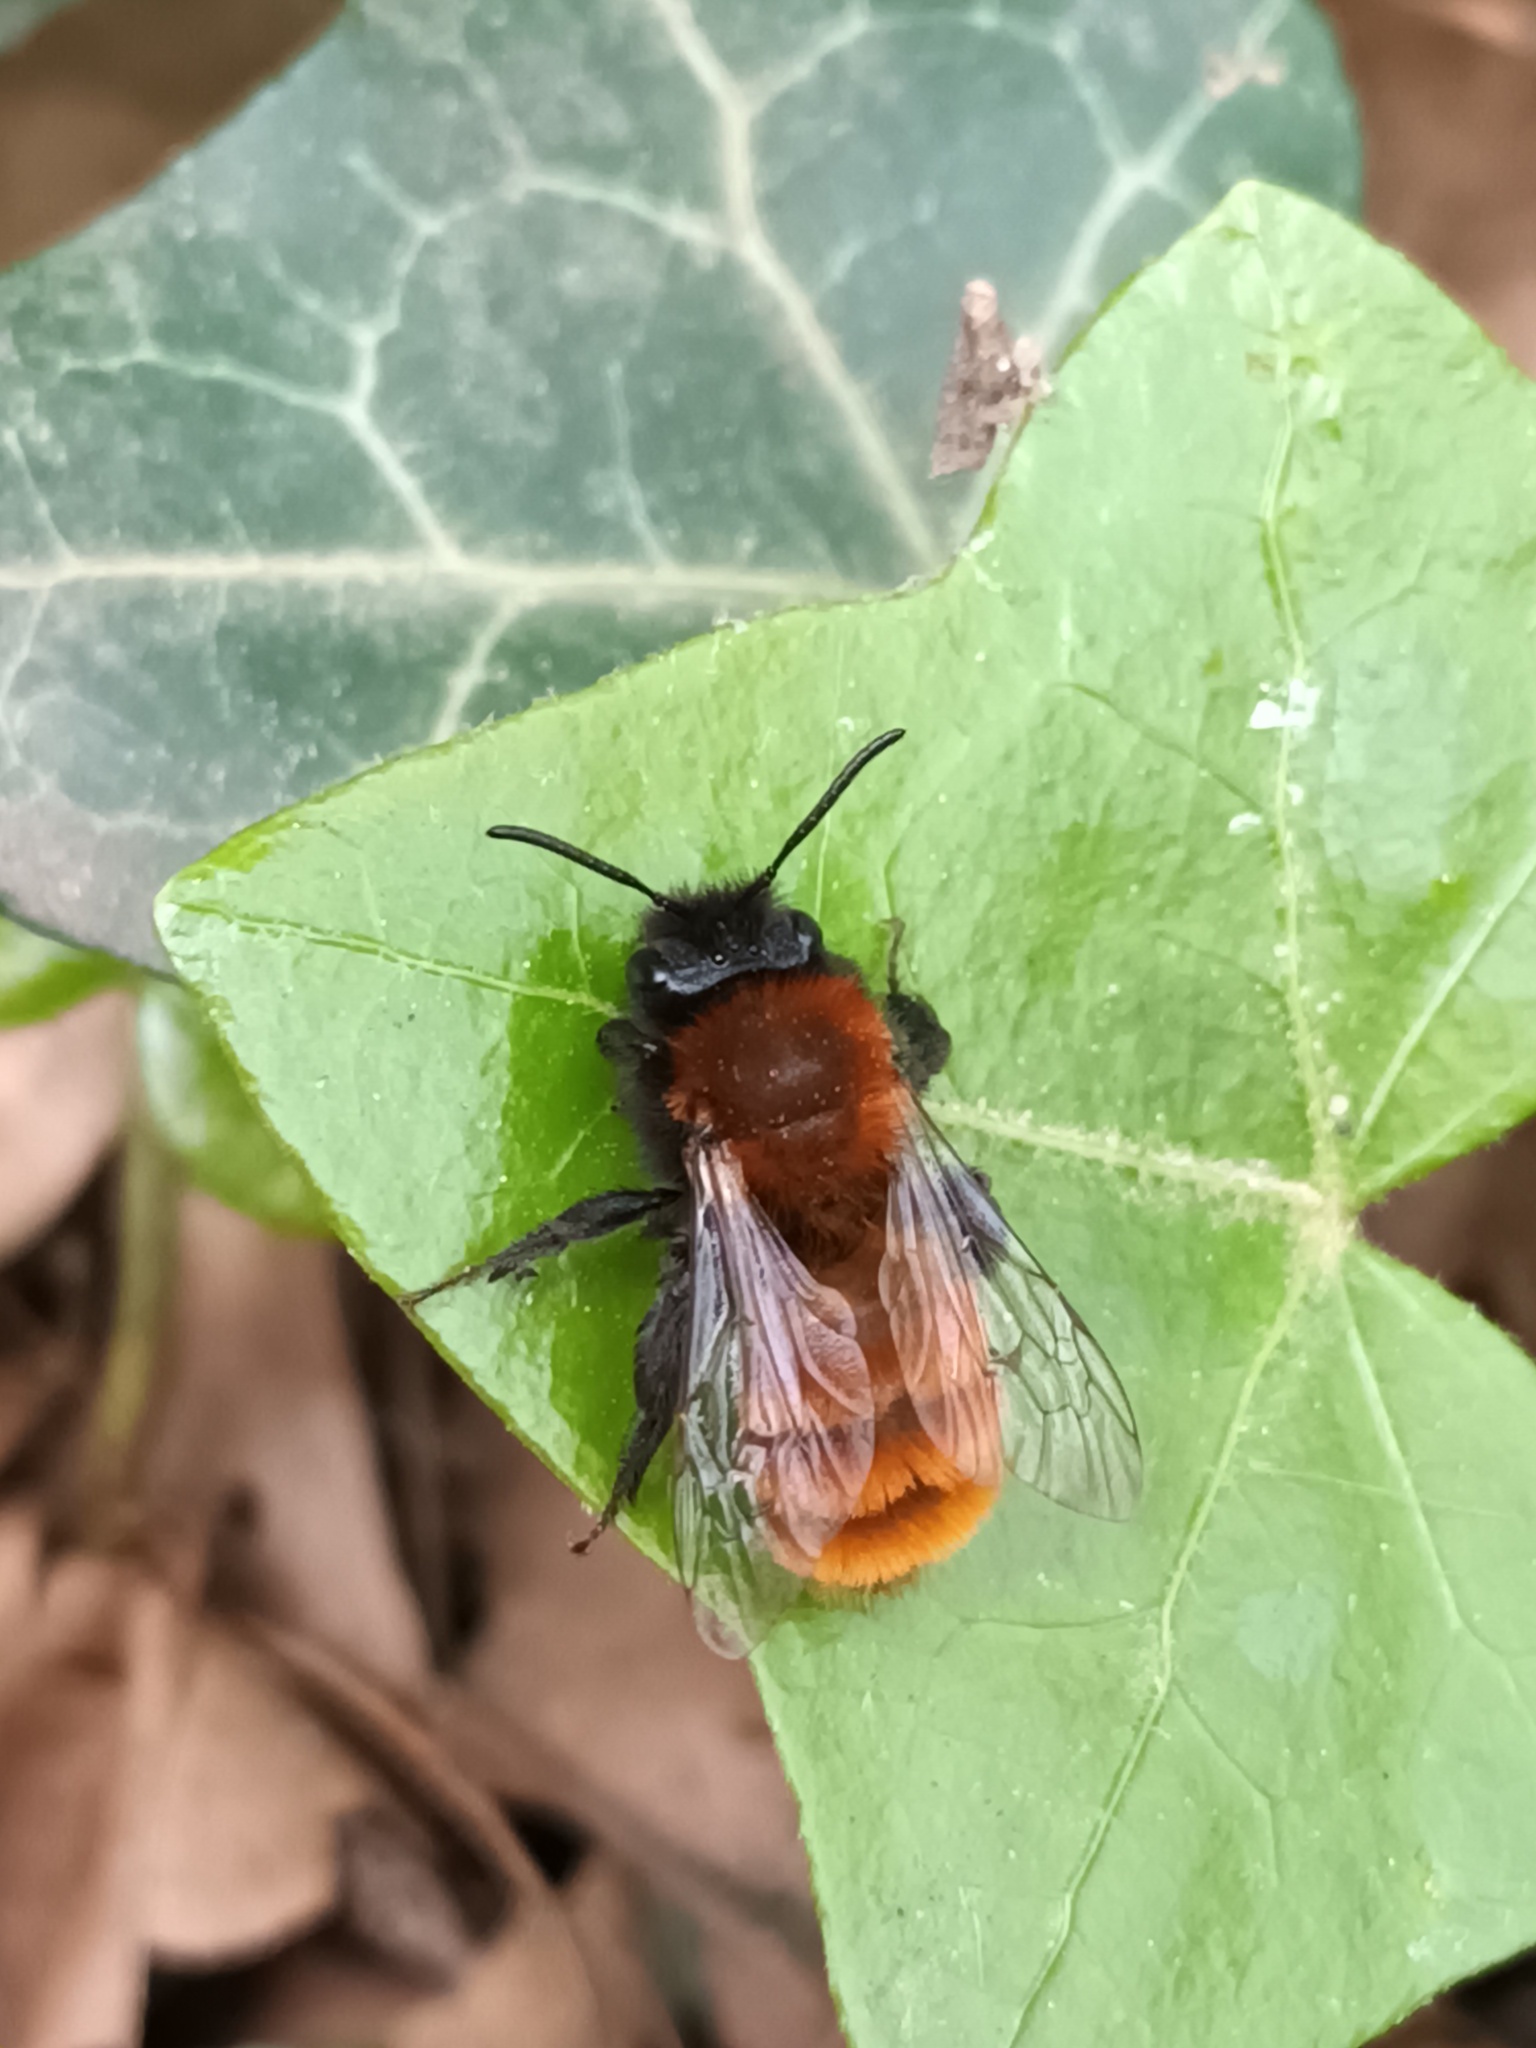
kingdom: Animalia
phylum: Arthropoda
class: Insecta
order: Hymenoptera
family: Andrenidae
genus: Andrena
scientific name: Andrena fulva
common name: Tawny mining bee
